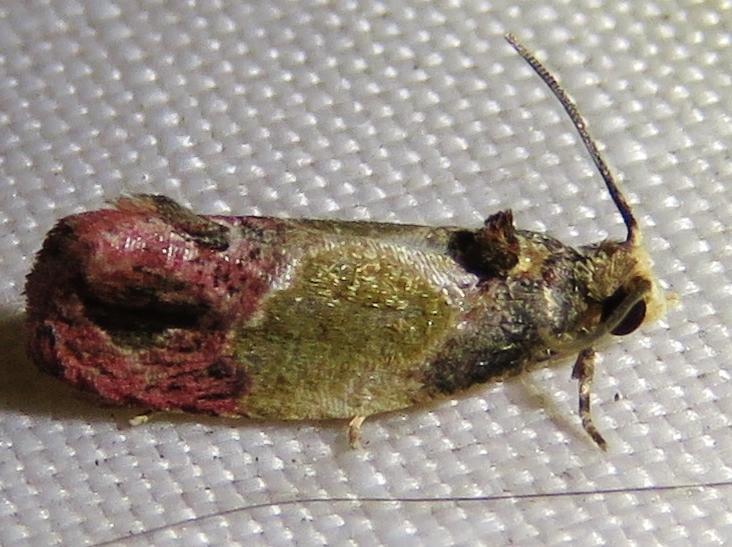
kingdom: Animalia
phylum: Arthropoda
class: Insecta
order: Lepidoptera
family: Tortricidae
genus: Eumarozia
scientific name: Eumarozia malachitana
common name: Sculptured moth
